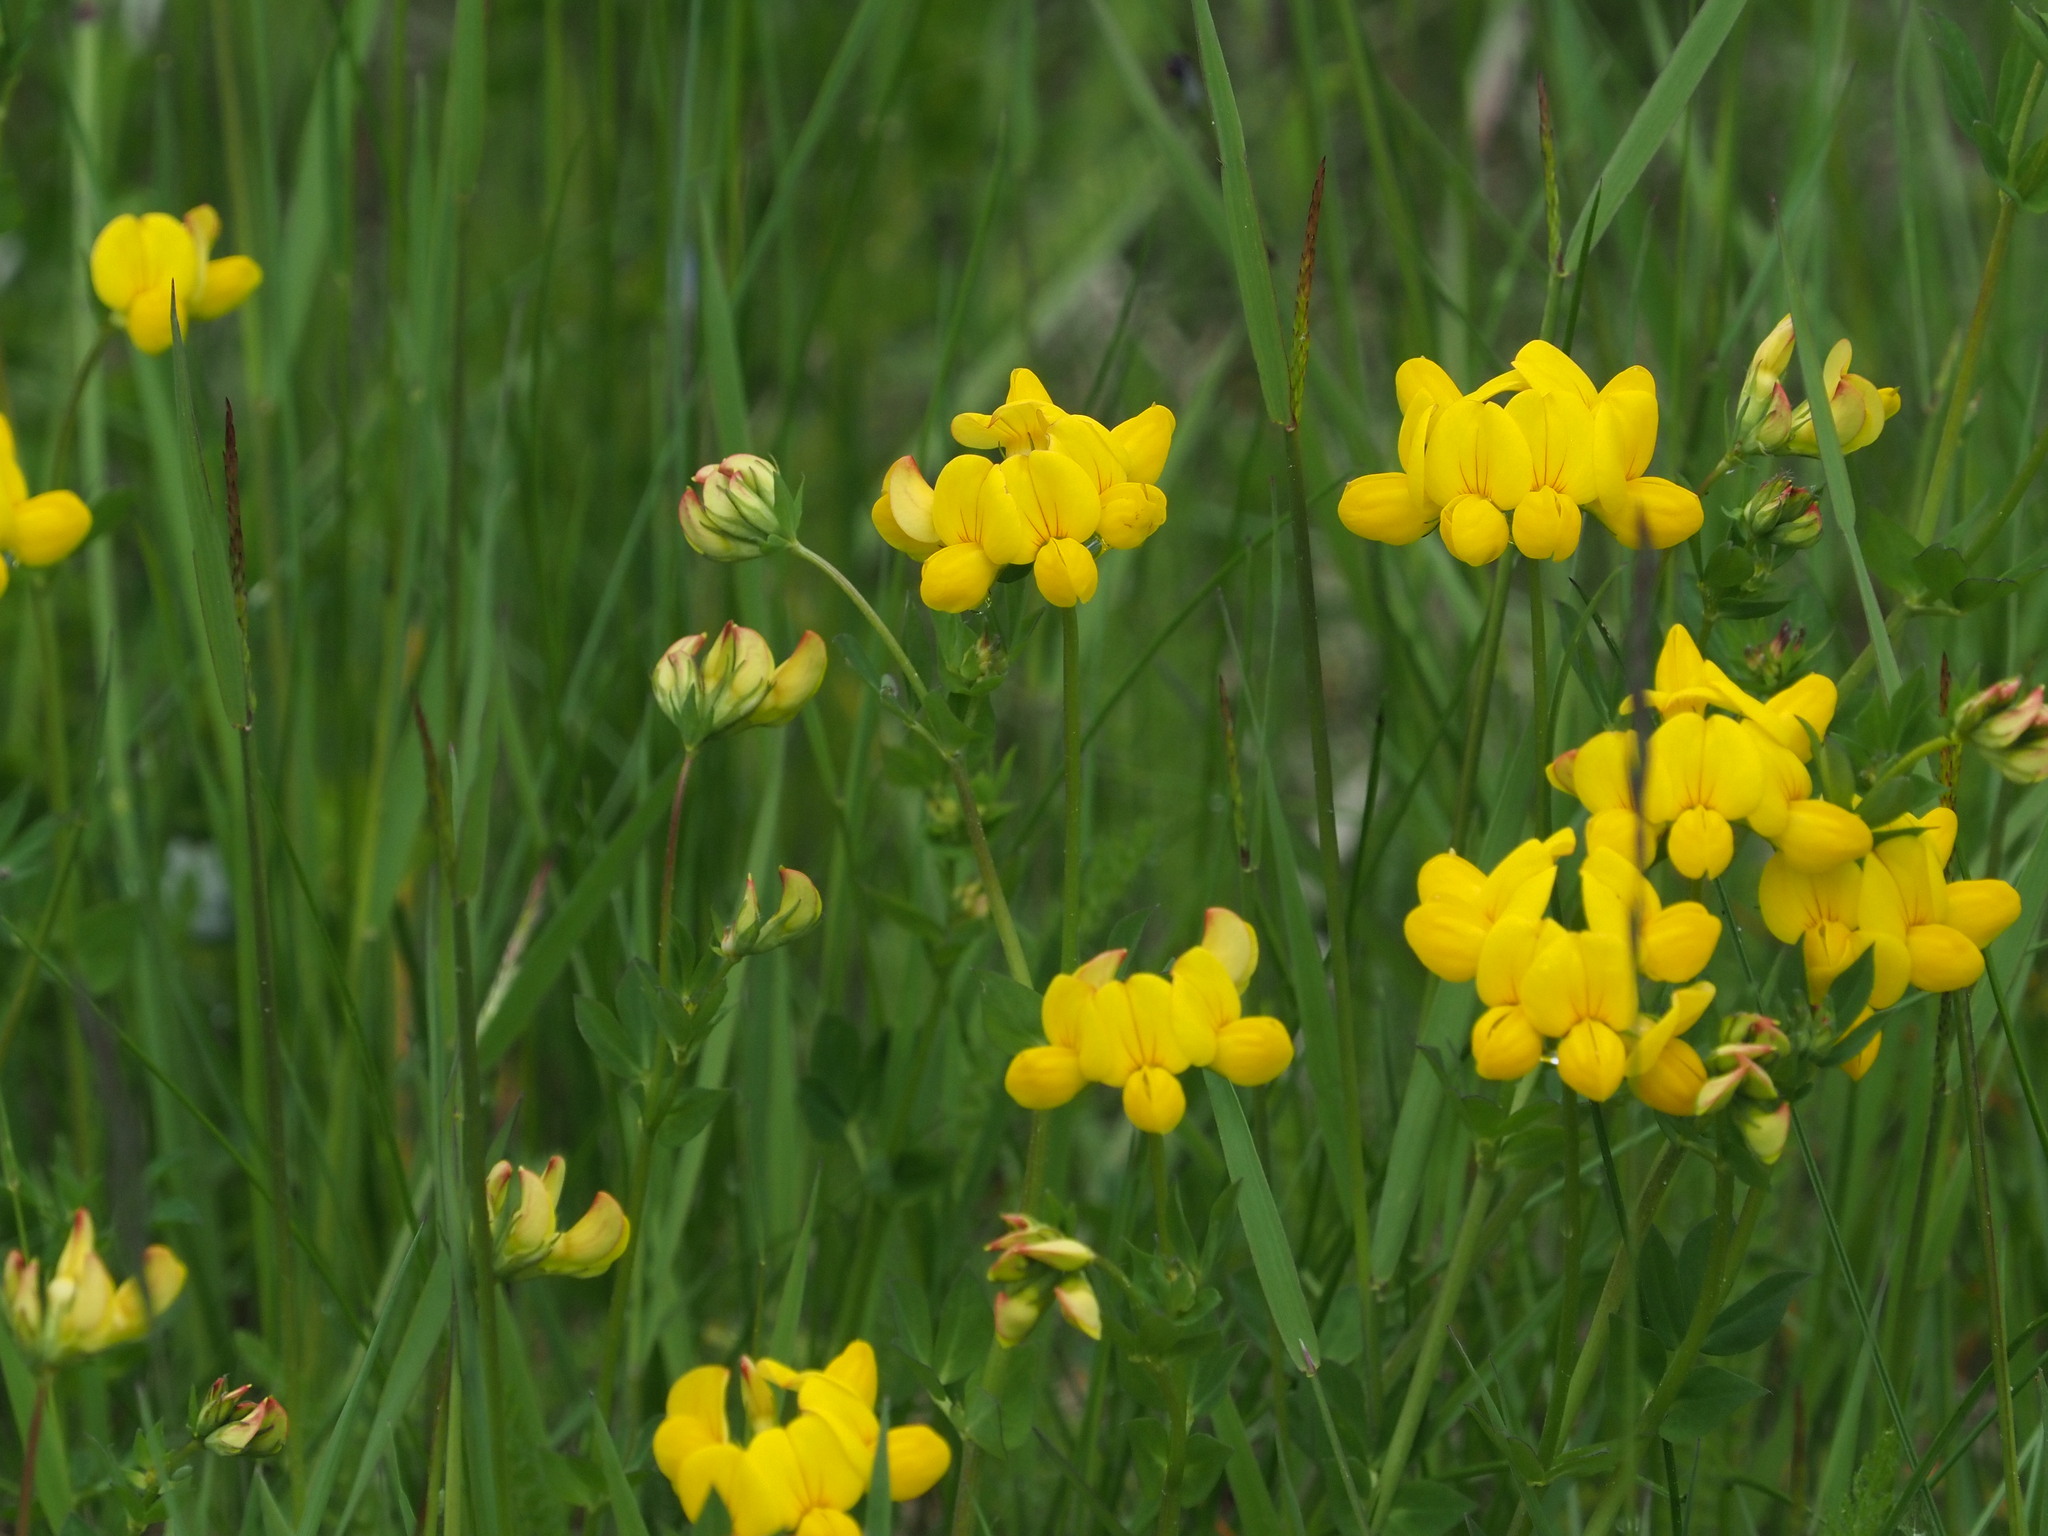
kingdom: Plantae
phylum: Tracheophyta
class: Magnoliopsida
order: Fabales
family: Fabaceae
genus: Lotus
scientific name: Lotus corniculatus
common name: Common bird's-foot-trefoil
